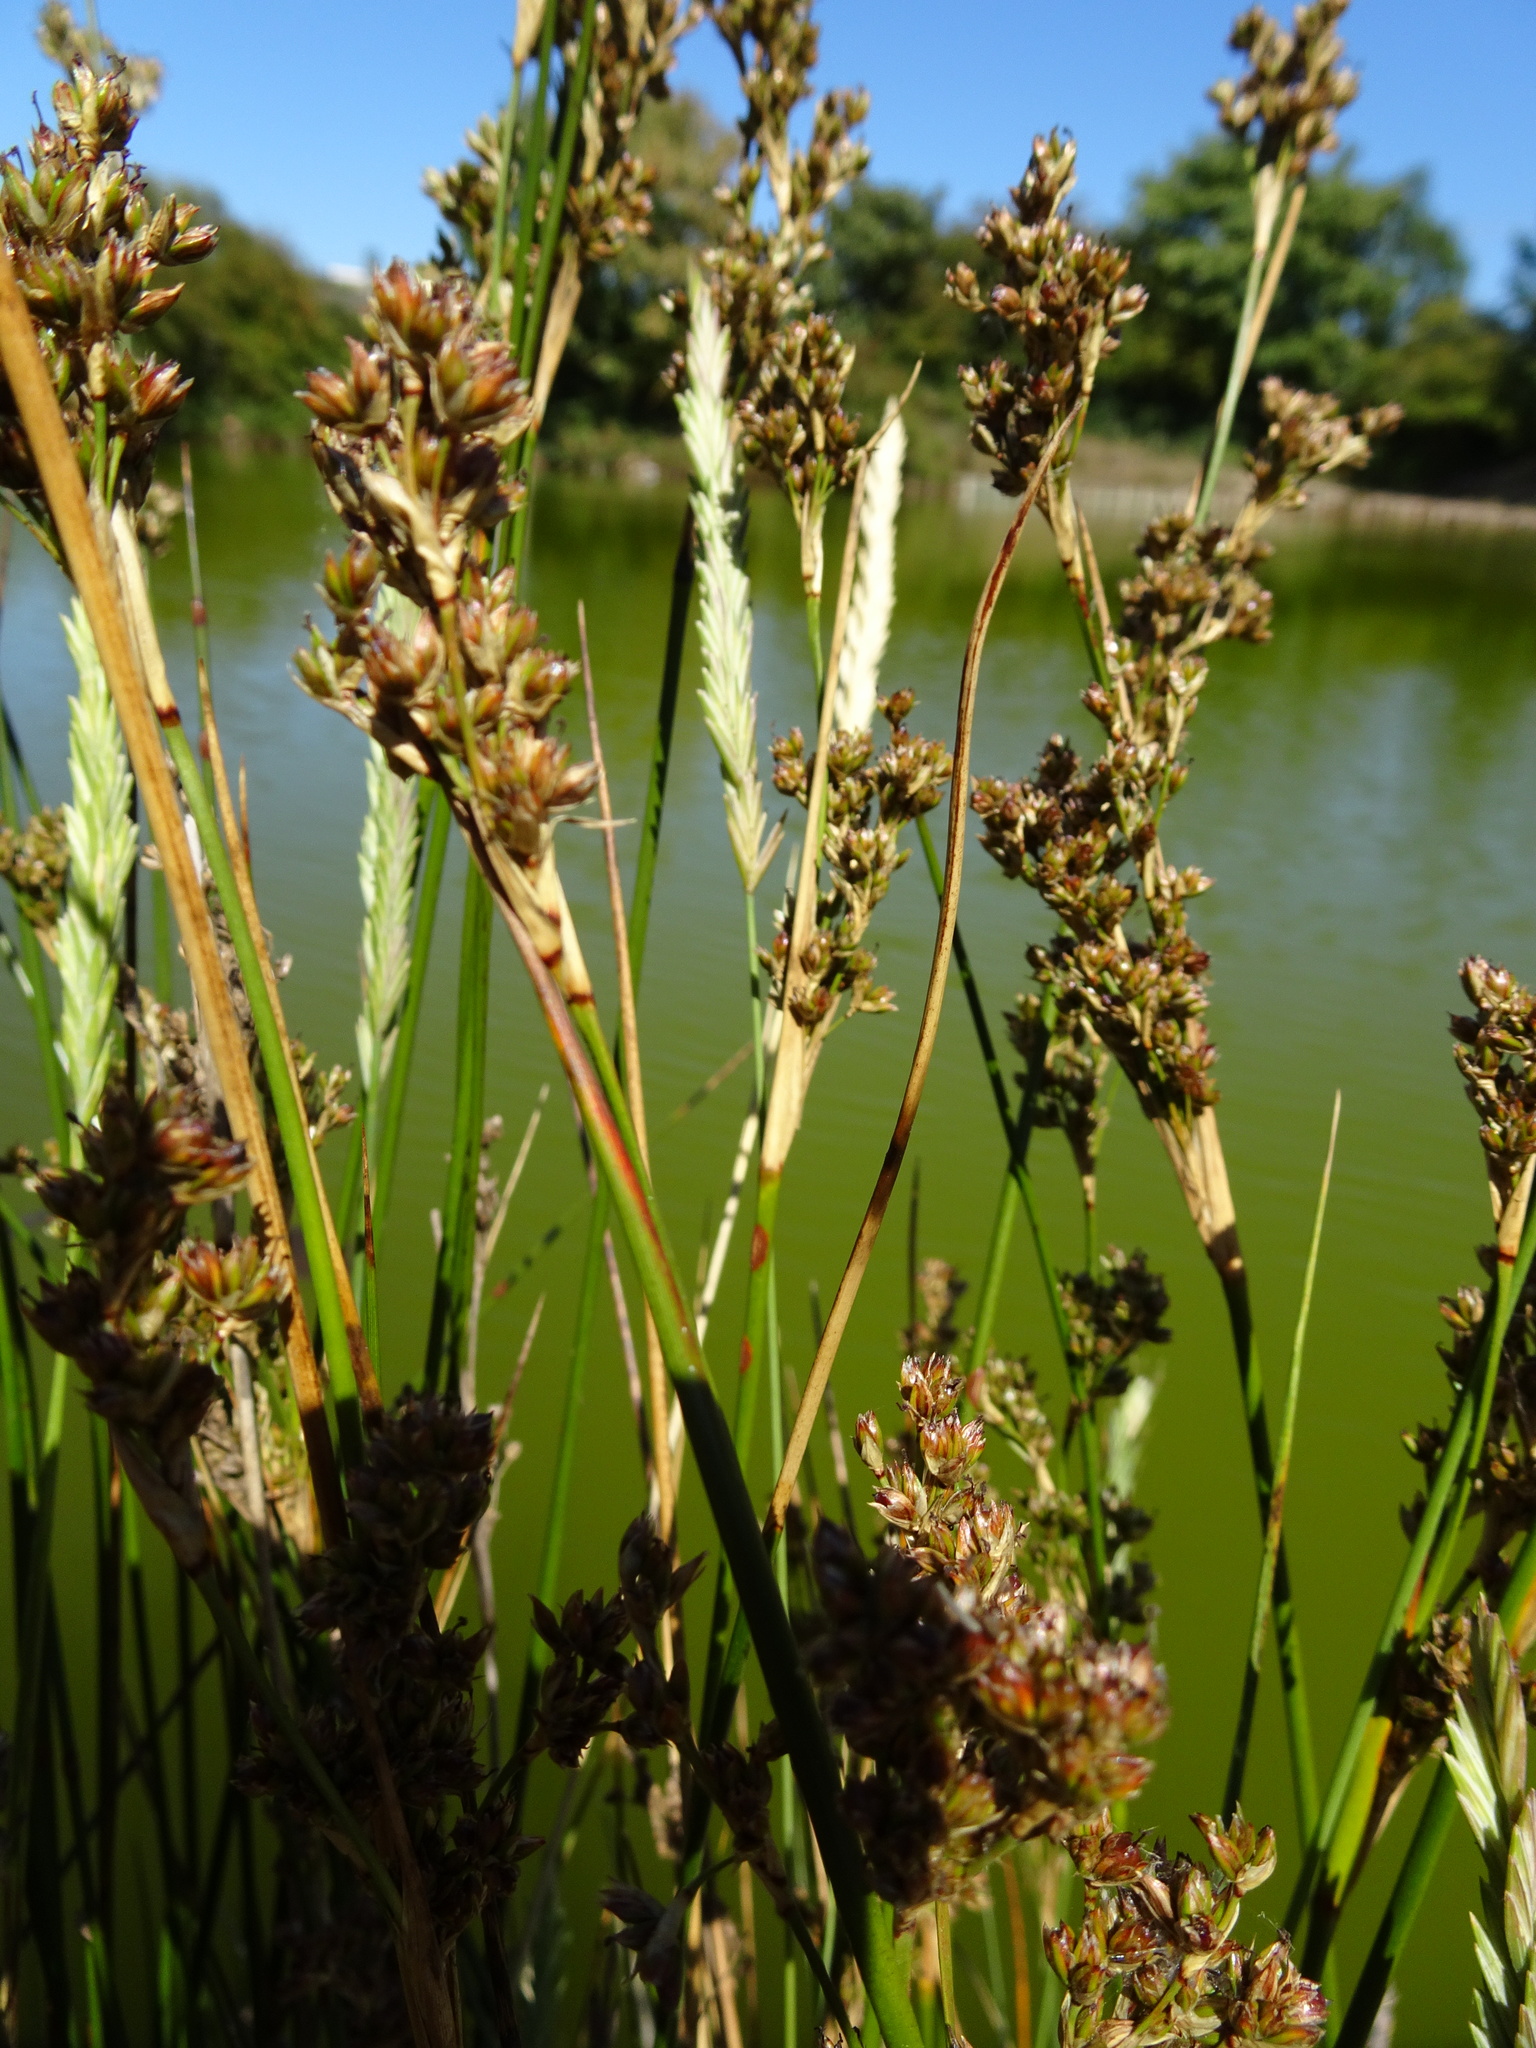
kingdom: Plantae
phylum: Tracheophyta
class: Liliopsida
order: Poales
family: Juncaceae
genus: Juncus
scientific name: Juncus maritimus
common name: Sea rush
